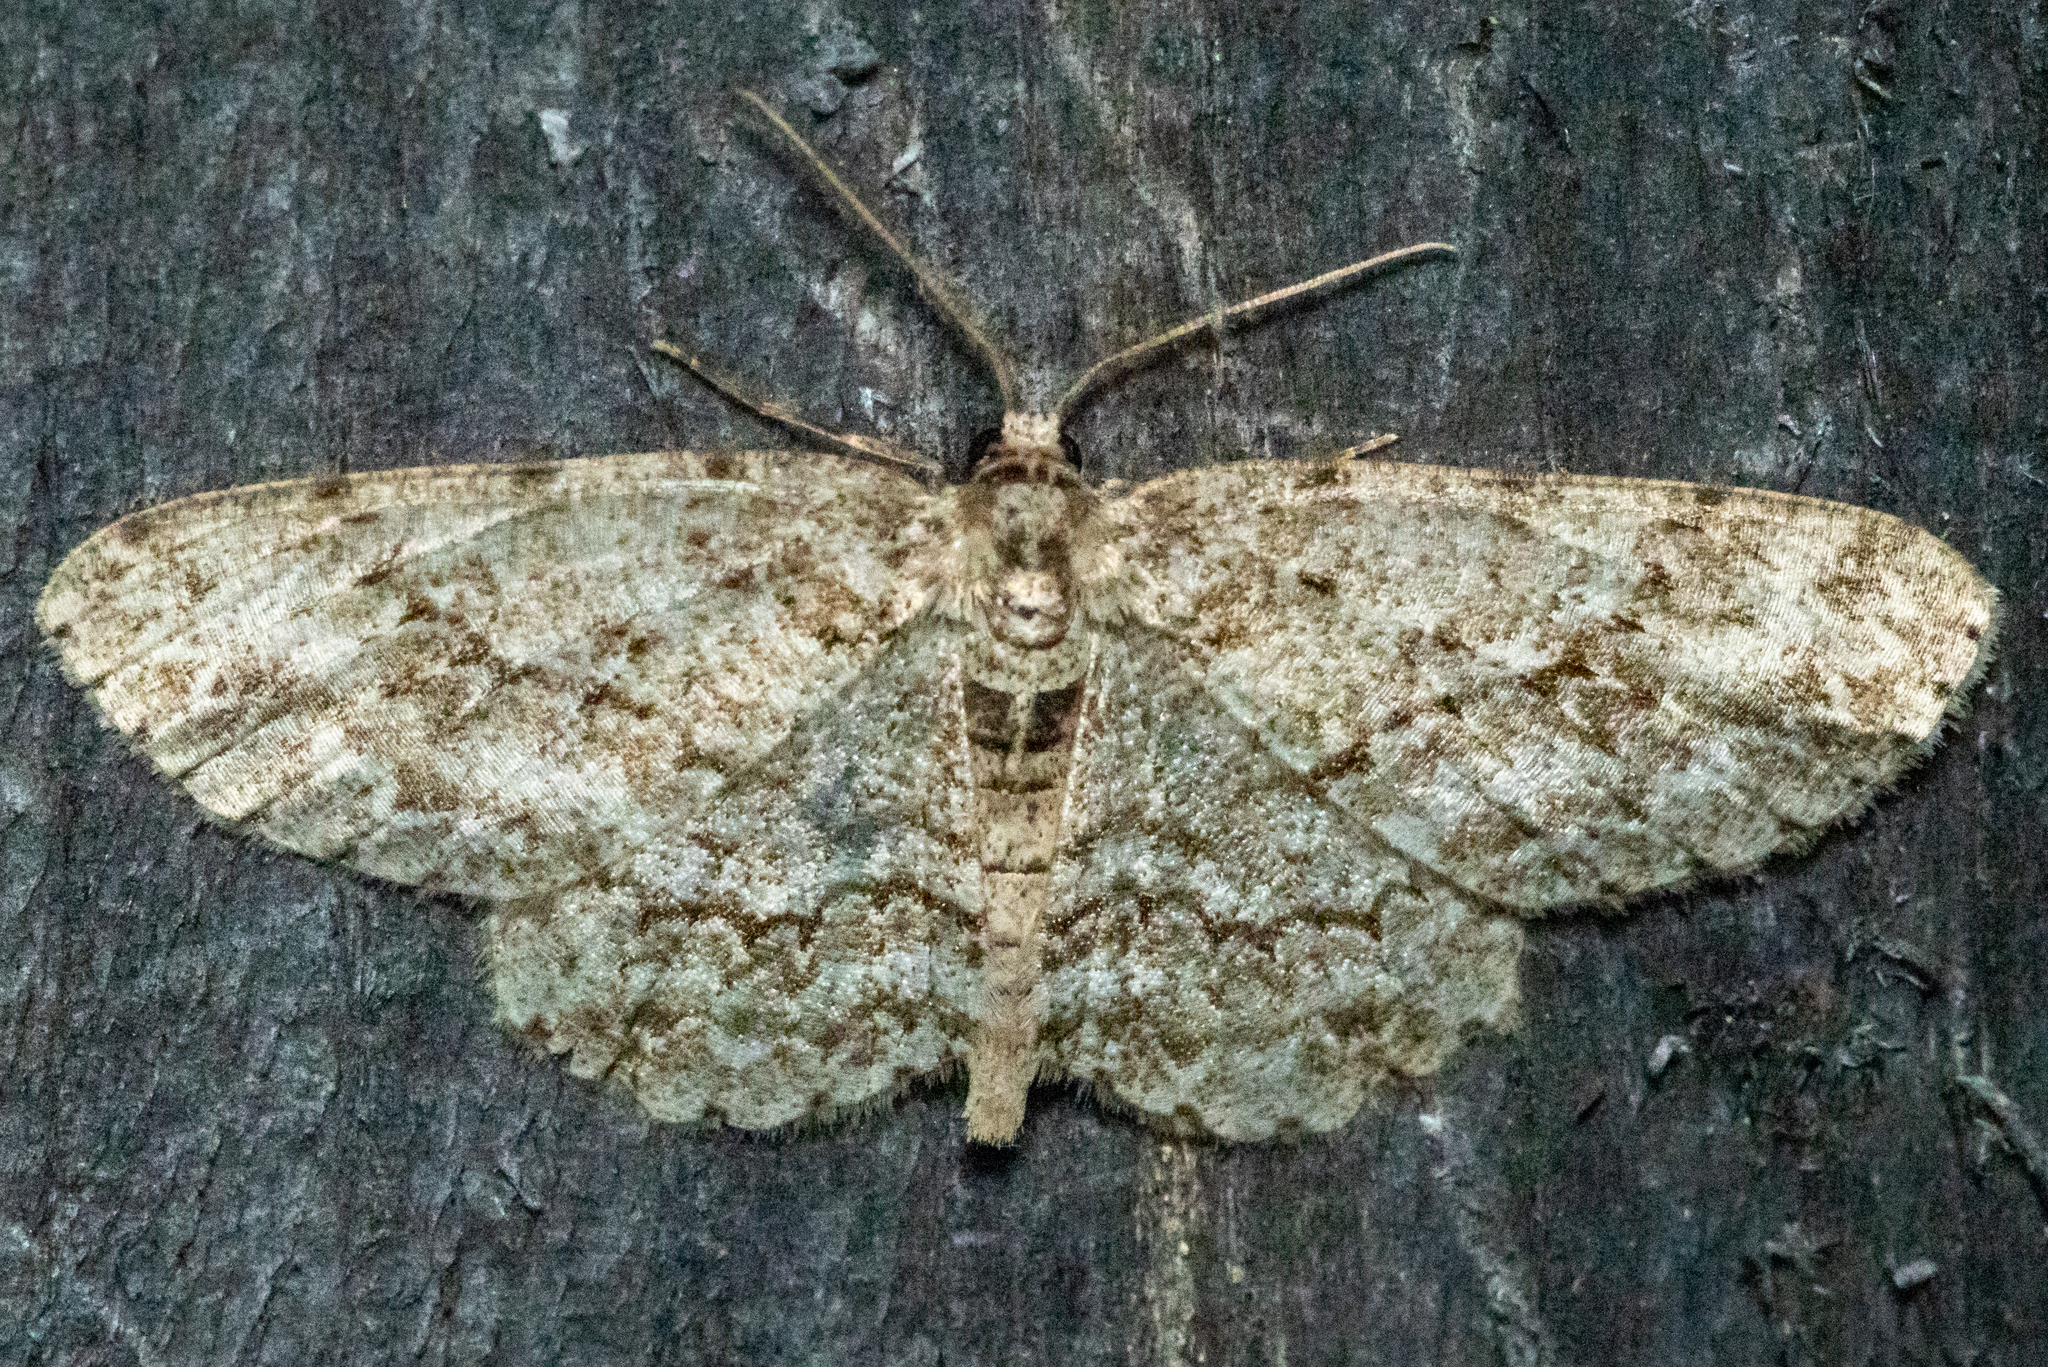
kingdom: Animalia
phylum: Arthropoda
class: Insecta
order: Lepidoptera
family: Geometridae
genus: Ectropis
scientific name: Ectropis crepuscularia
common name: Engrailed
